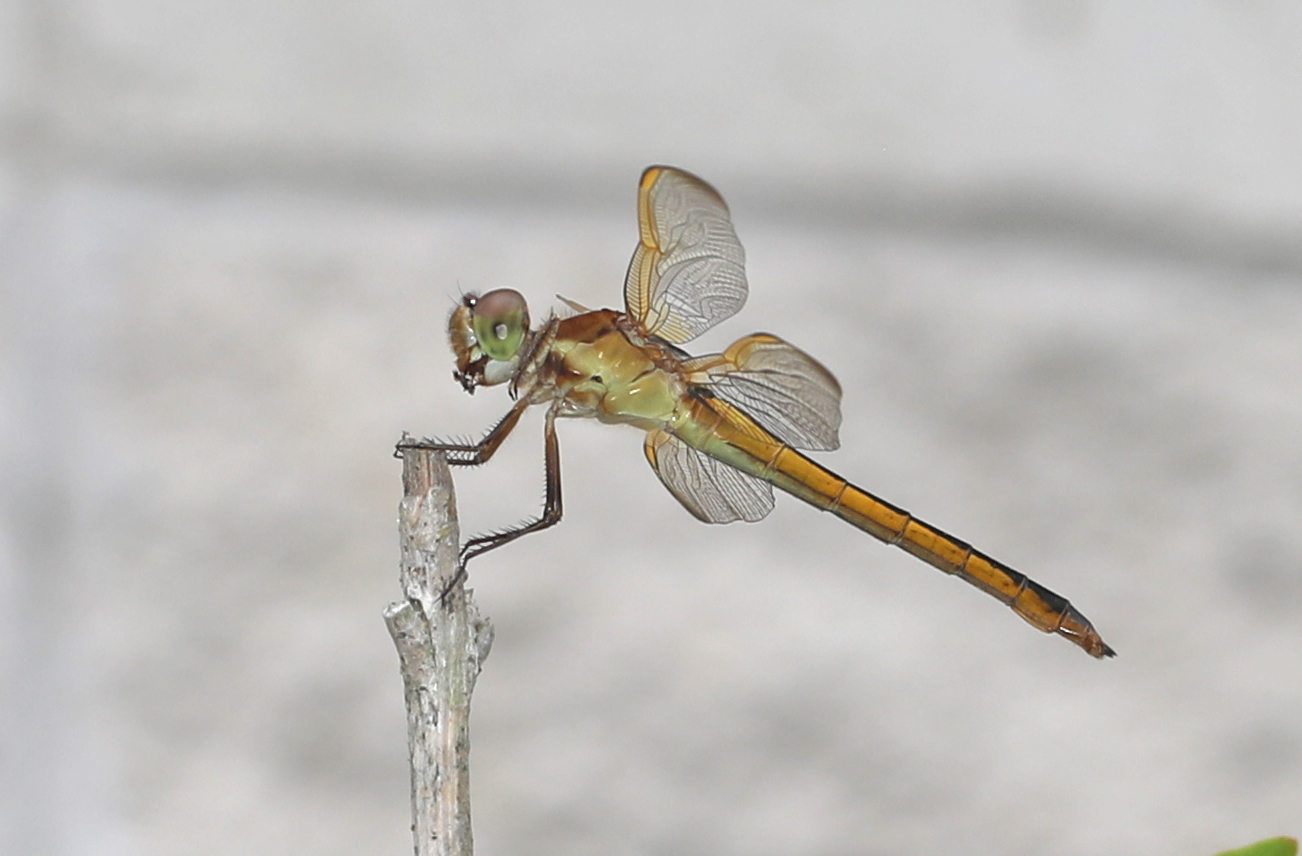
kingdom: Animalia
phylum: Arthropoda
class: Insecta
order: Odonata
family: Libellulidae
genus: Libellula
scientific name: Libellula auripennis
